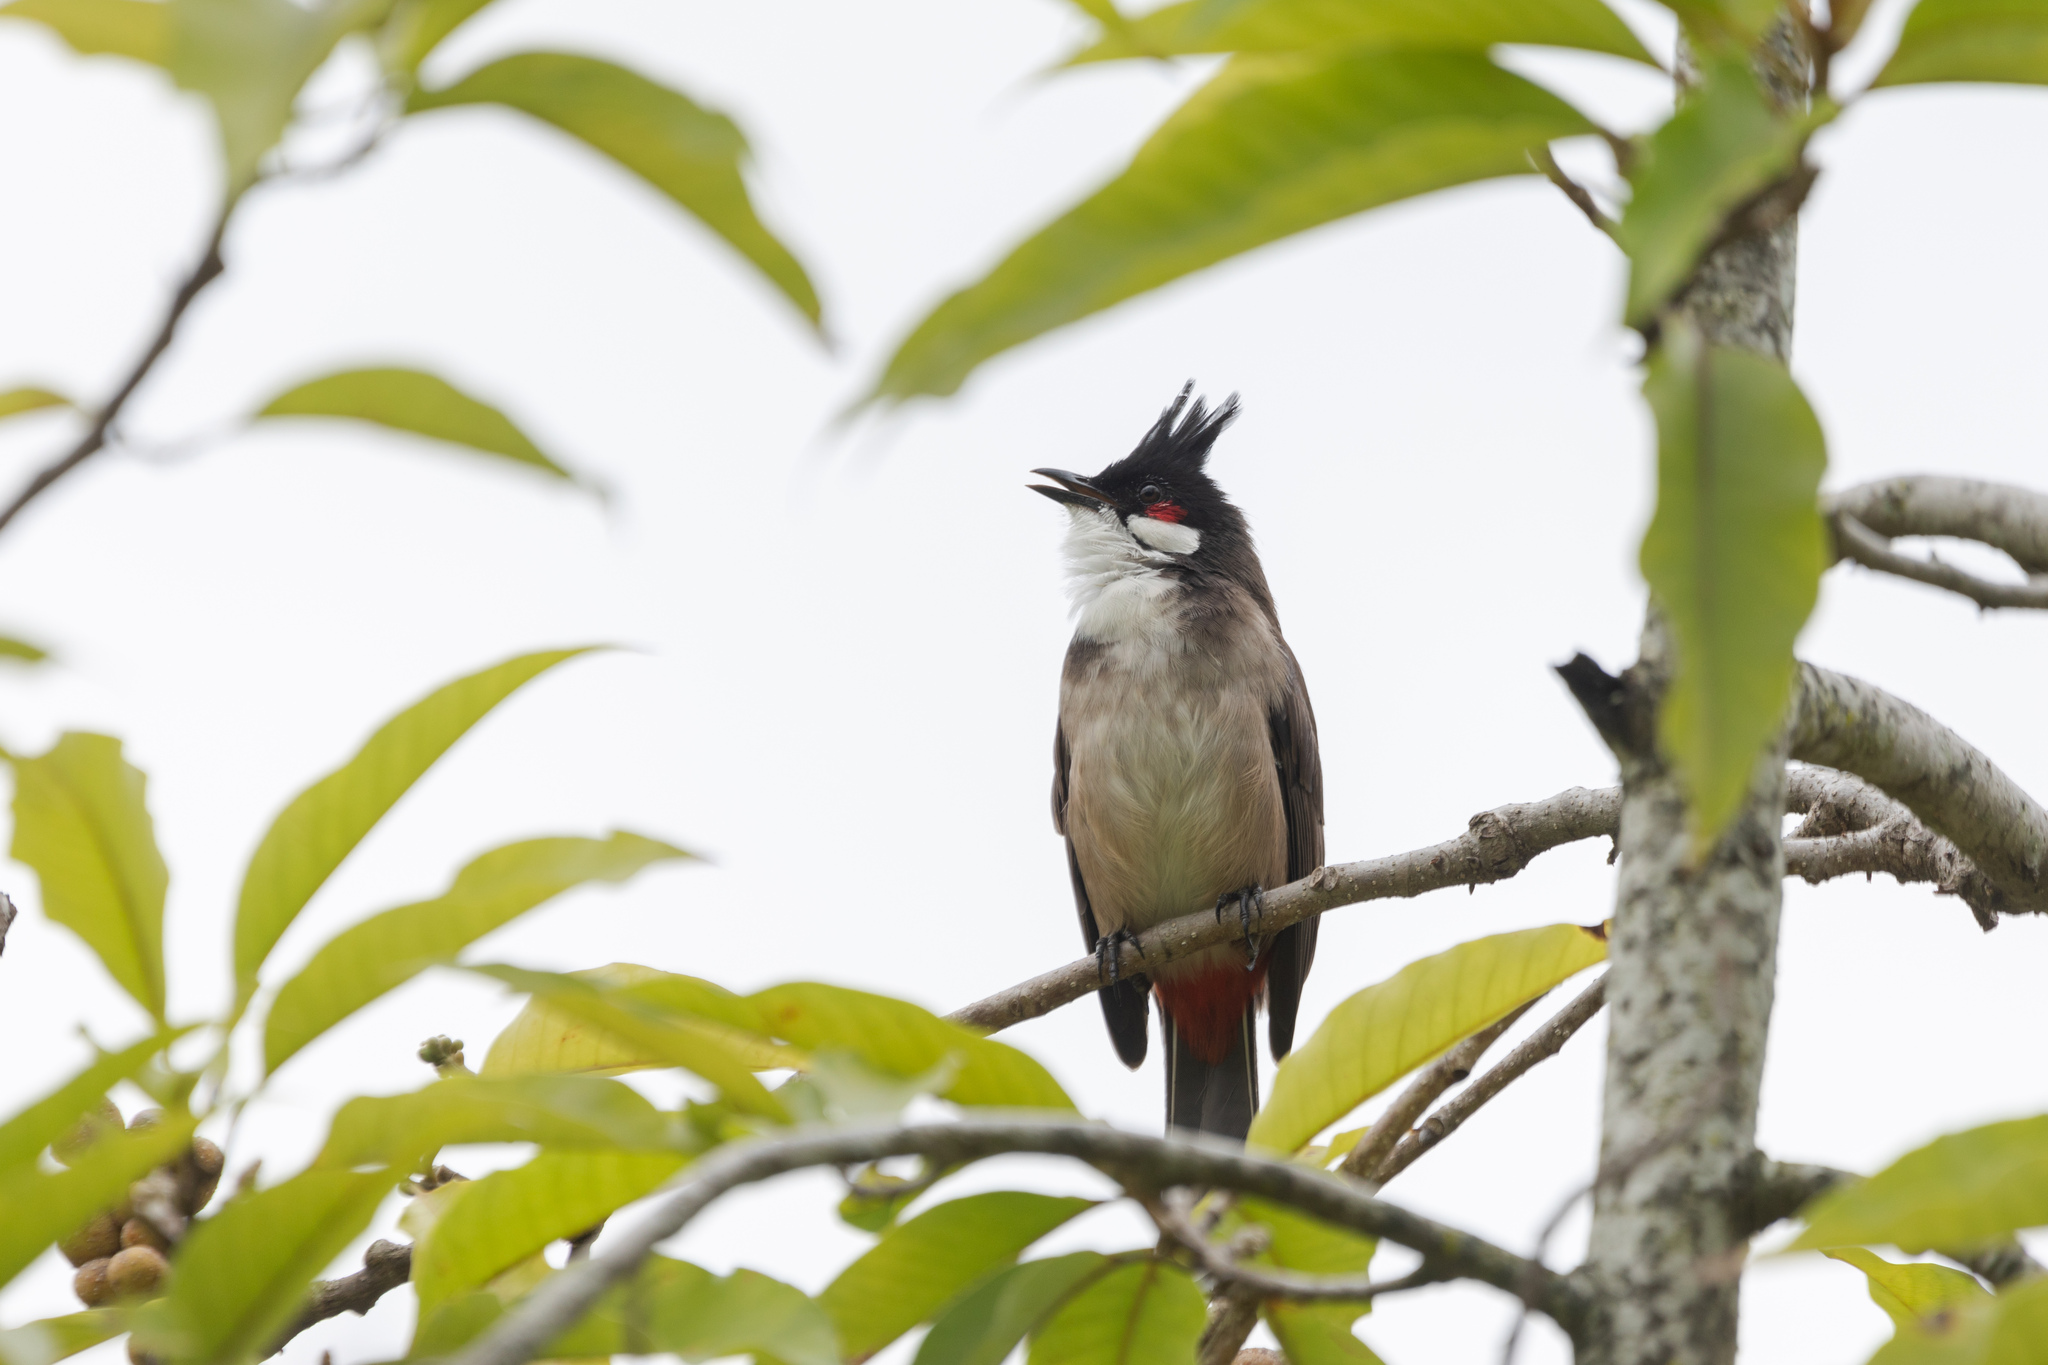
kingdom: Animalia
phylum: Chordata
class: Aves
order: Passeriformes
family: Pycnonotidae
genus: Pycnonotus
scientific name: Pycnonotus jocosus
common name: Red-whiskered bulbul
